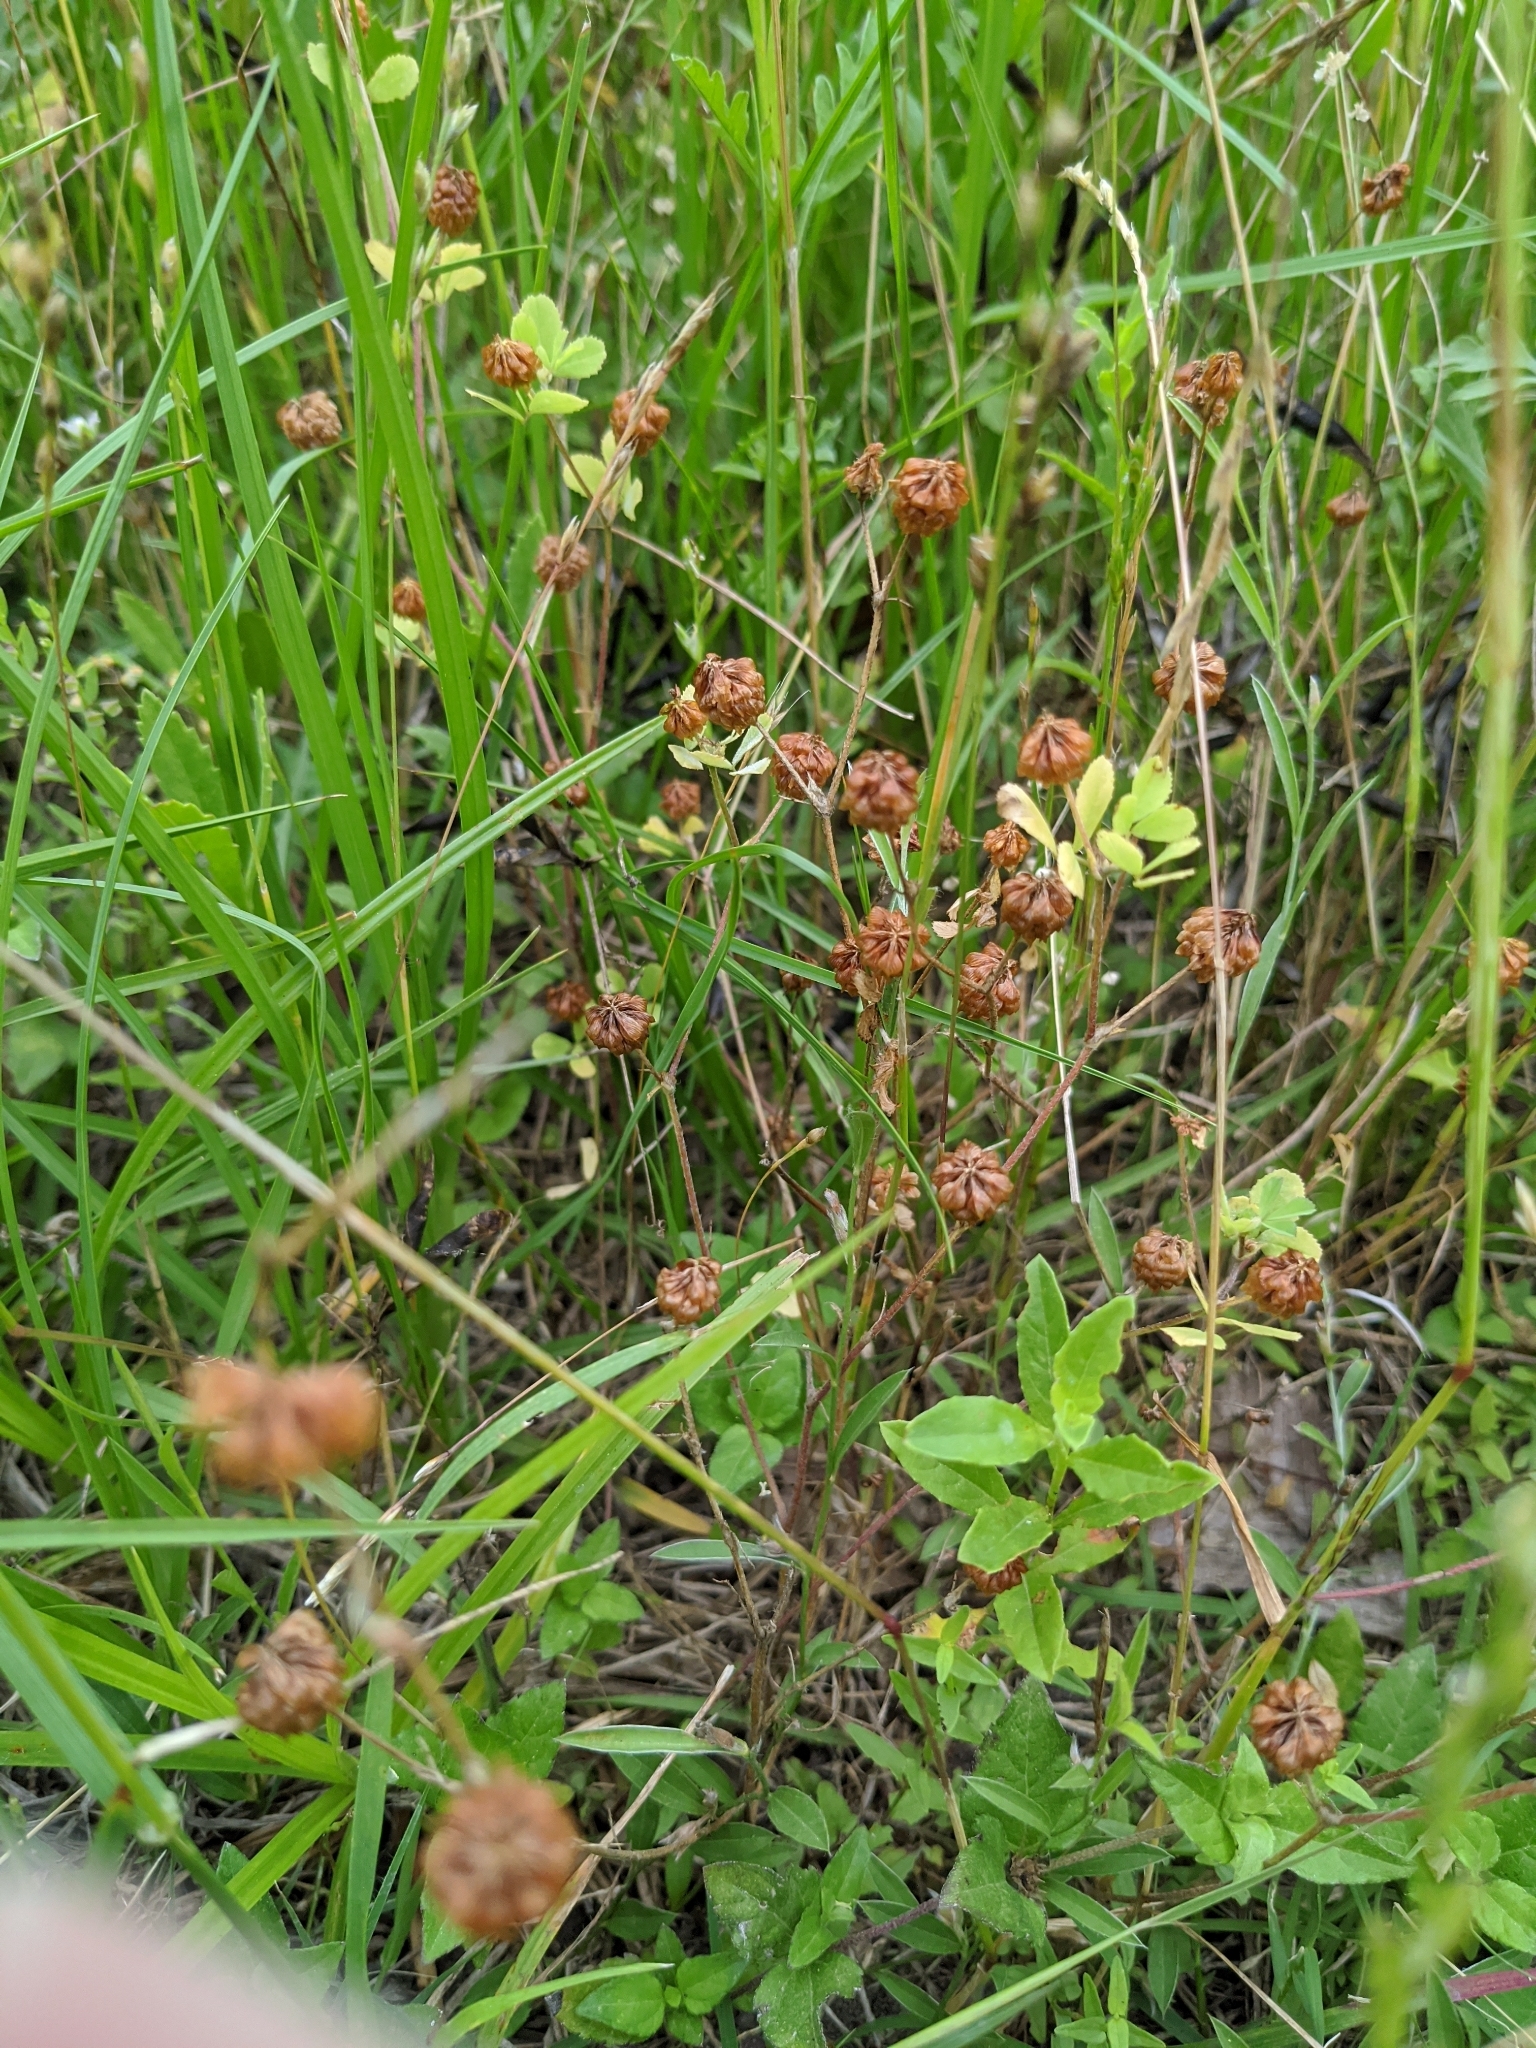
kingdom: Plantae
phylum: Tracheophyta
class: Magnoliopsida
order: Fabales
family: Fabaceae
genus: Trifolium
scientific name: Trifolium campestre
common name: Field clover
